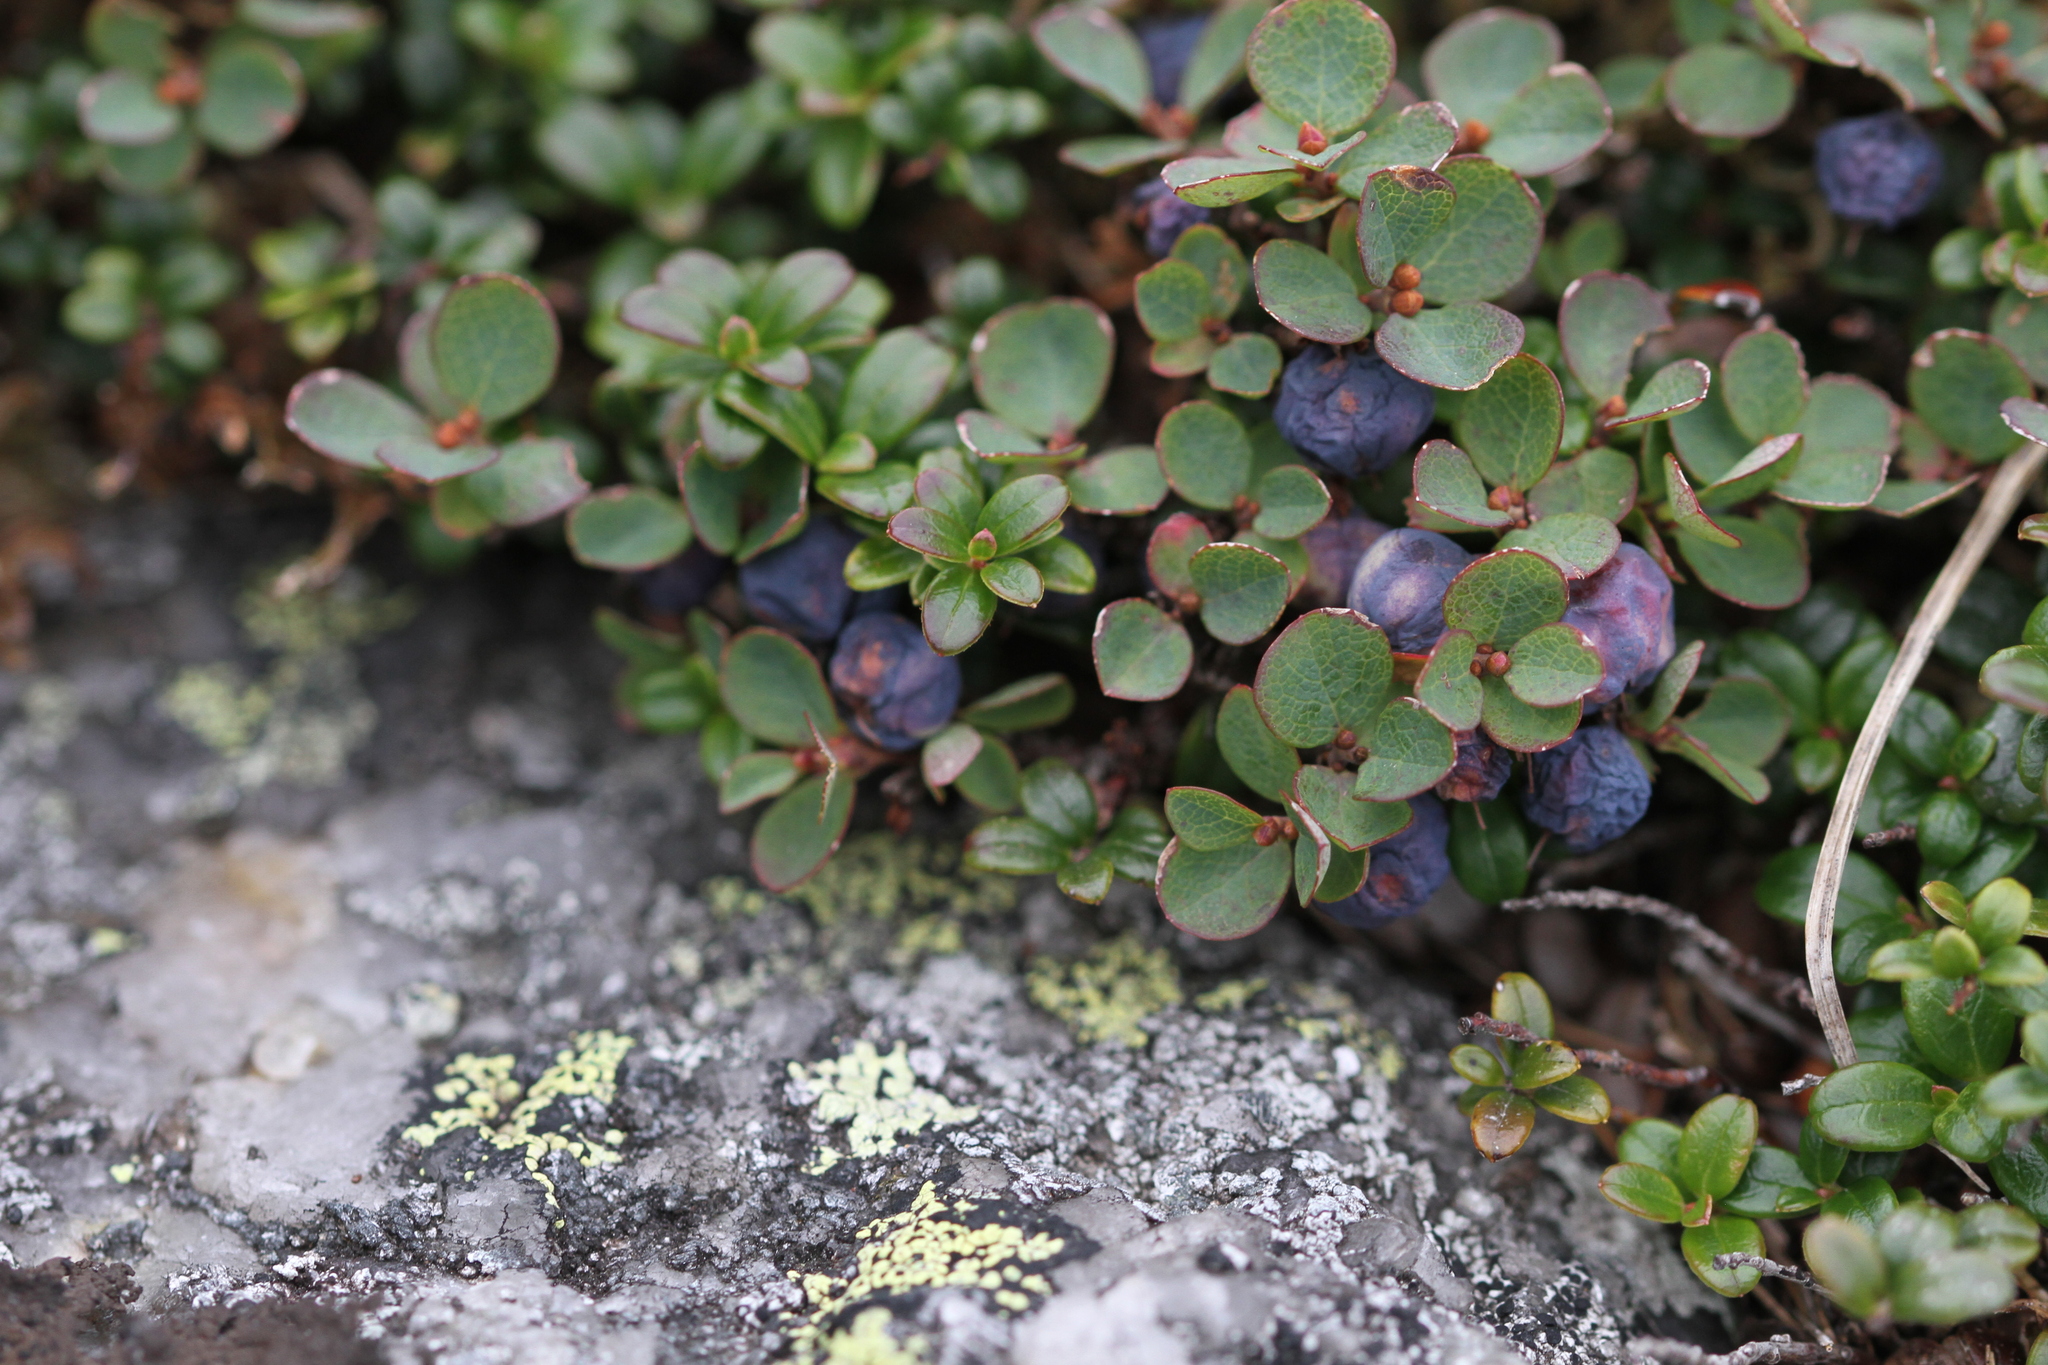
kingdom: Plantae
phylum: Tracheophyta
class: Magnoliopsida
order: Ericales
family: Ericaceae
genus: Vaccinium
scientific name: Vaccinium uliginosum
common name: Bog bilberry
